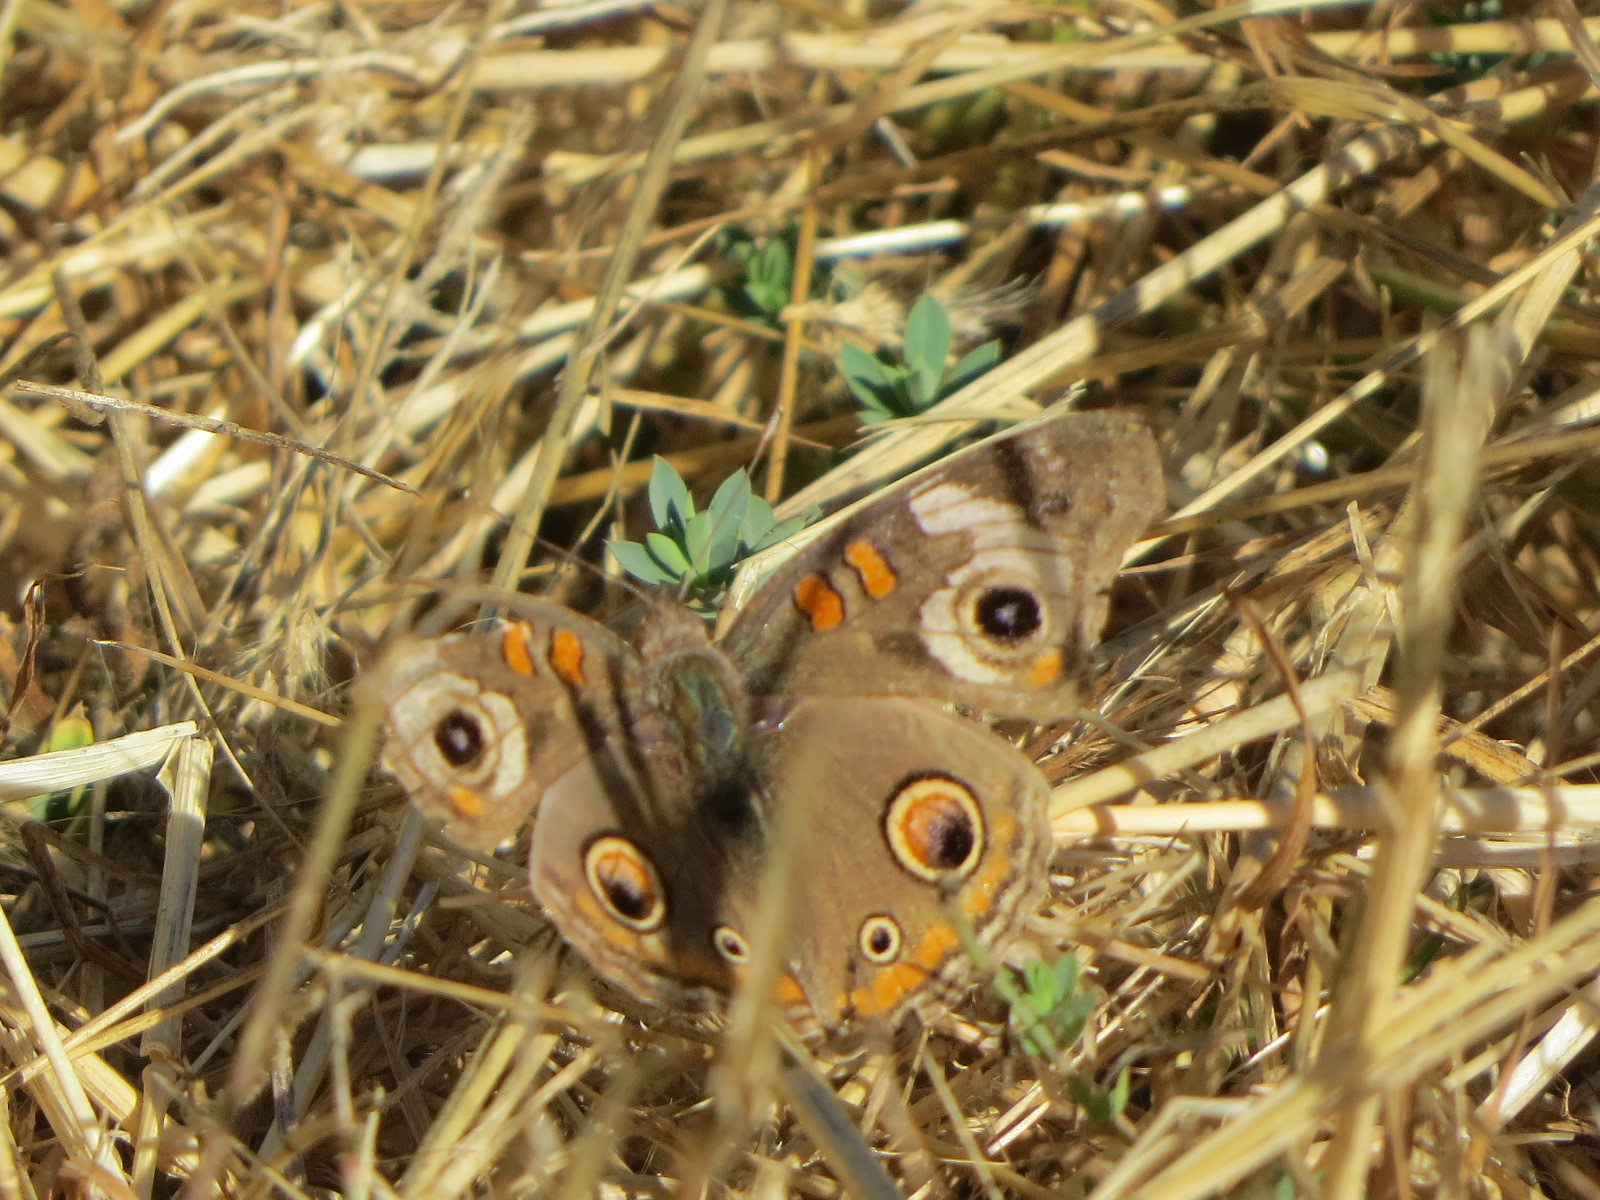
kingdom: Animalia
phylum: Arthropoda
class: Insecta
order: Lepidoptera
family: Nymphalidae
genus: Junonia
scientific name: Junonia grisea
